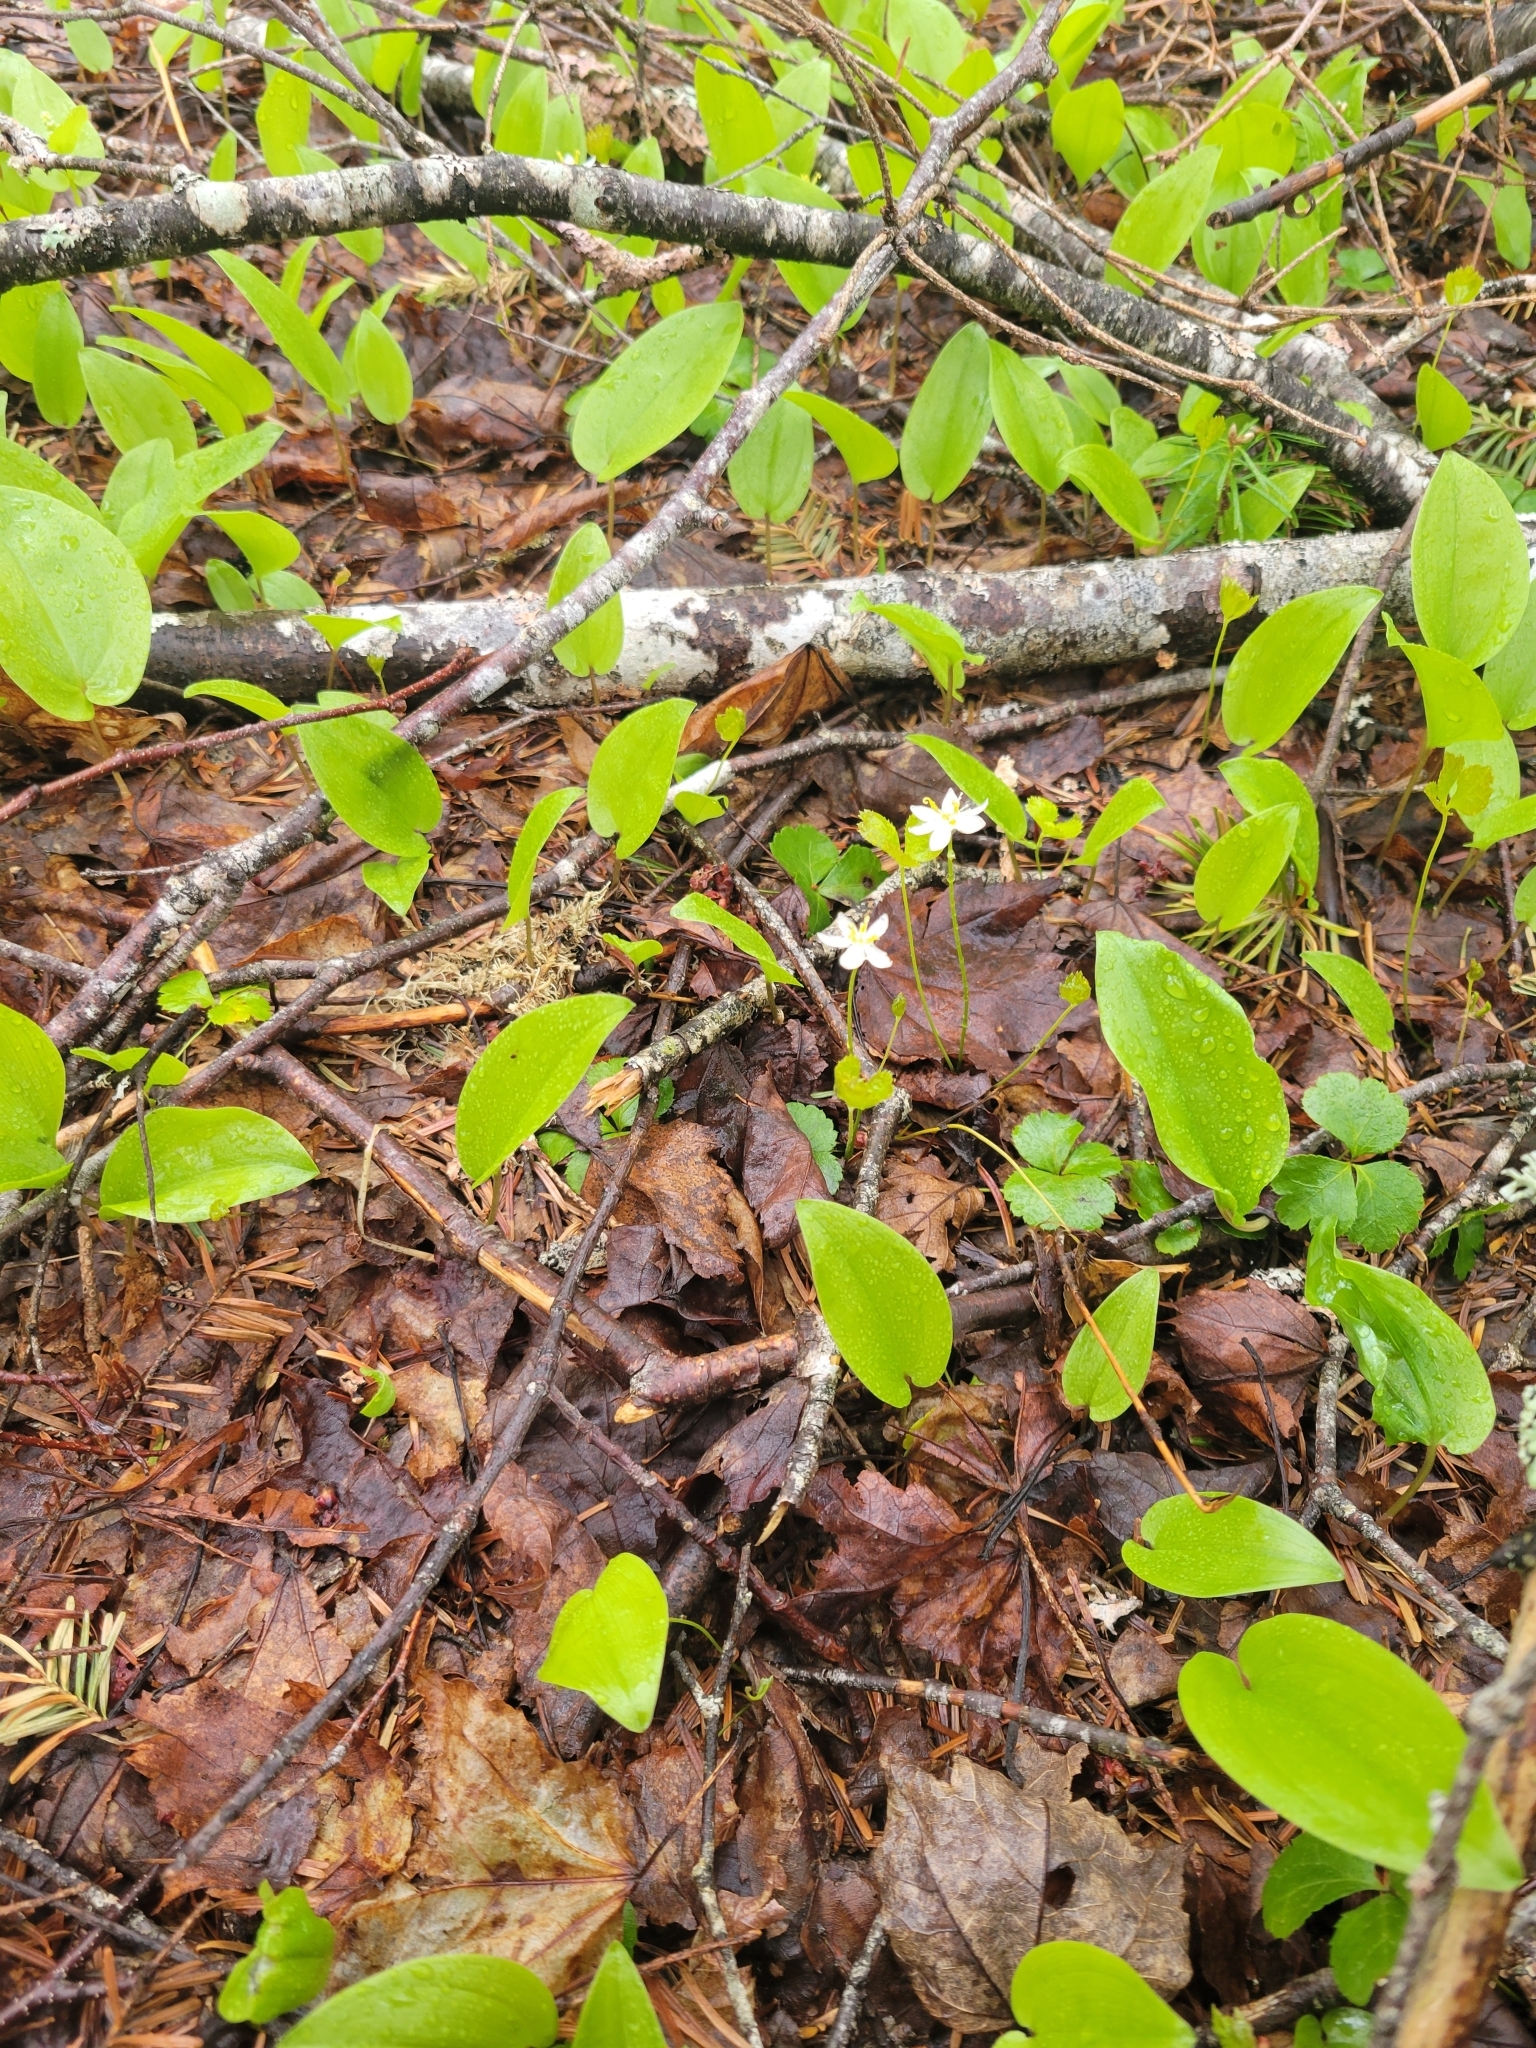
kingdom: Plantae
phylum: Tracheophyta
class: Magnoliopsida
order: Ranunculales
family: Ranunculaceae
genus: Coptis
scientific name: Coptis trifolia
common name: Canker-root
